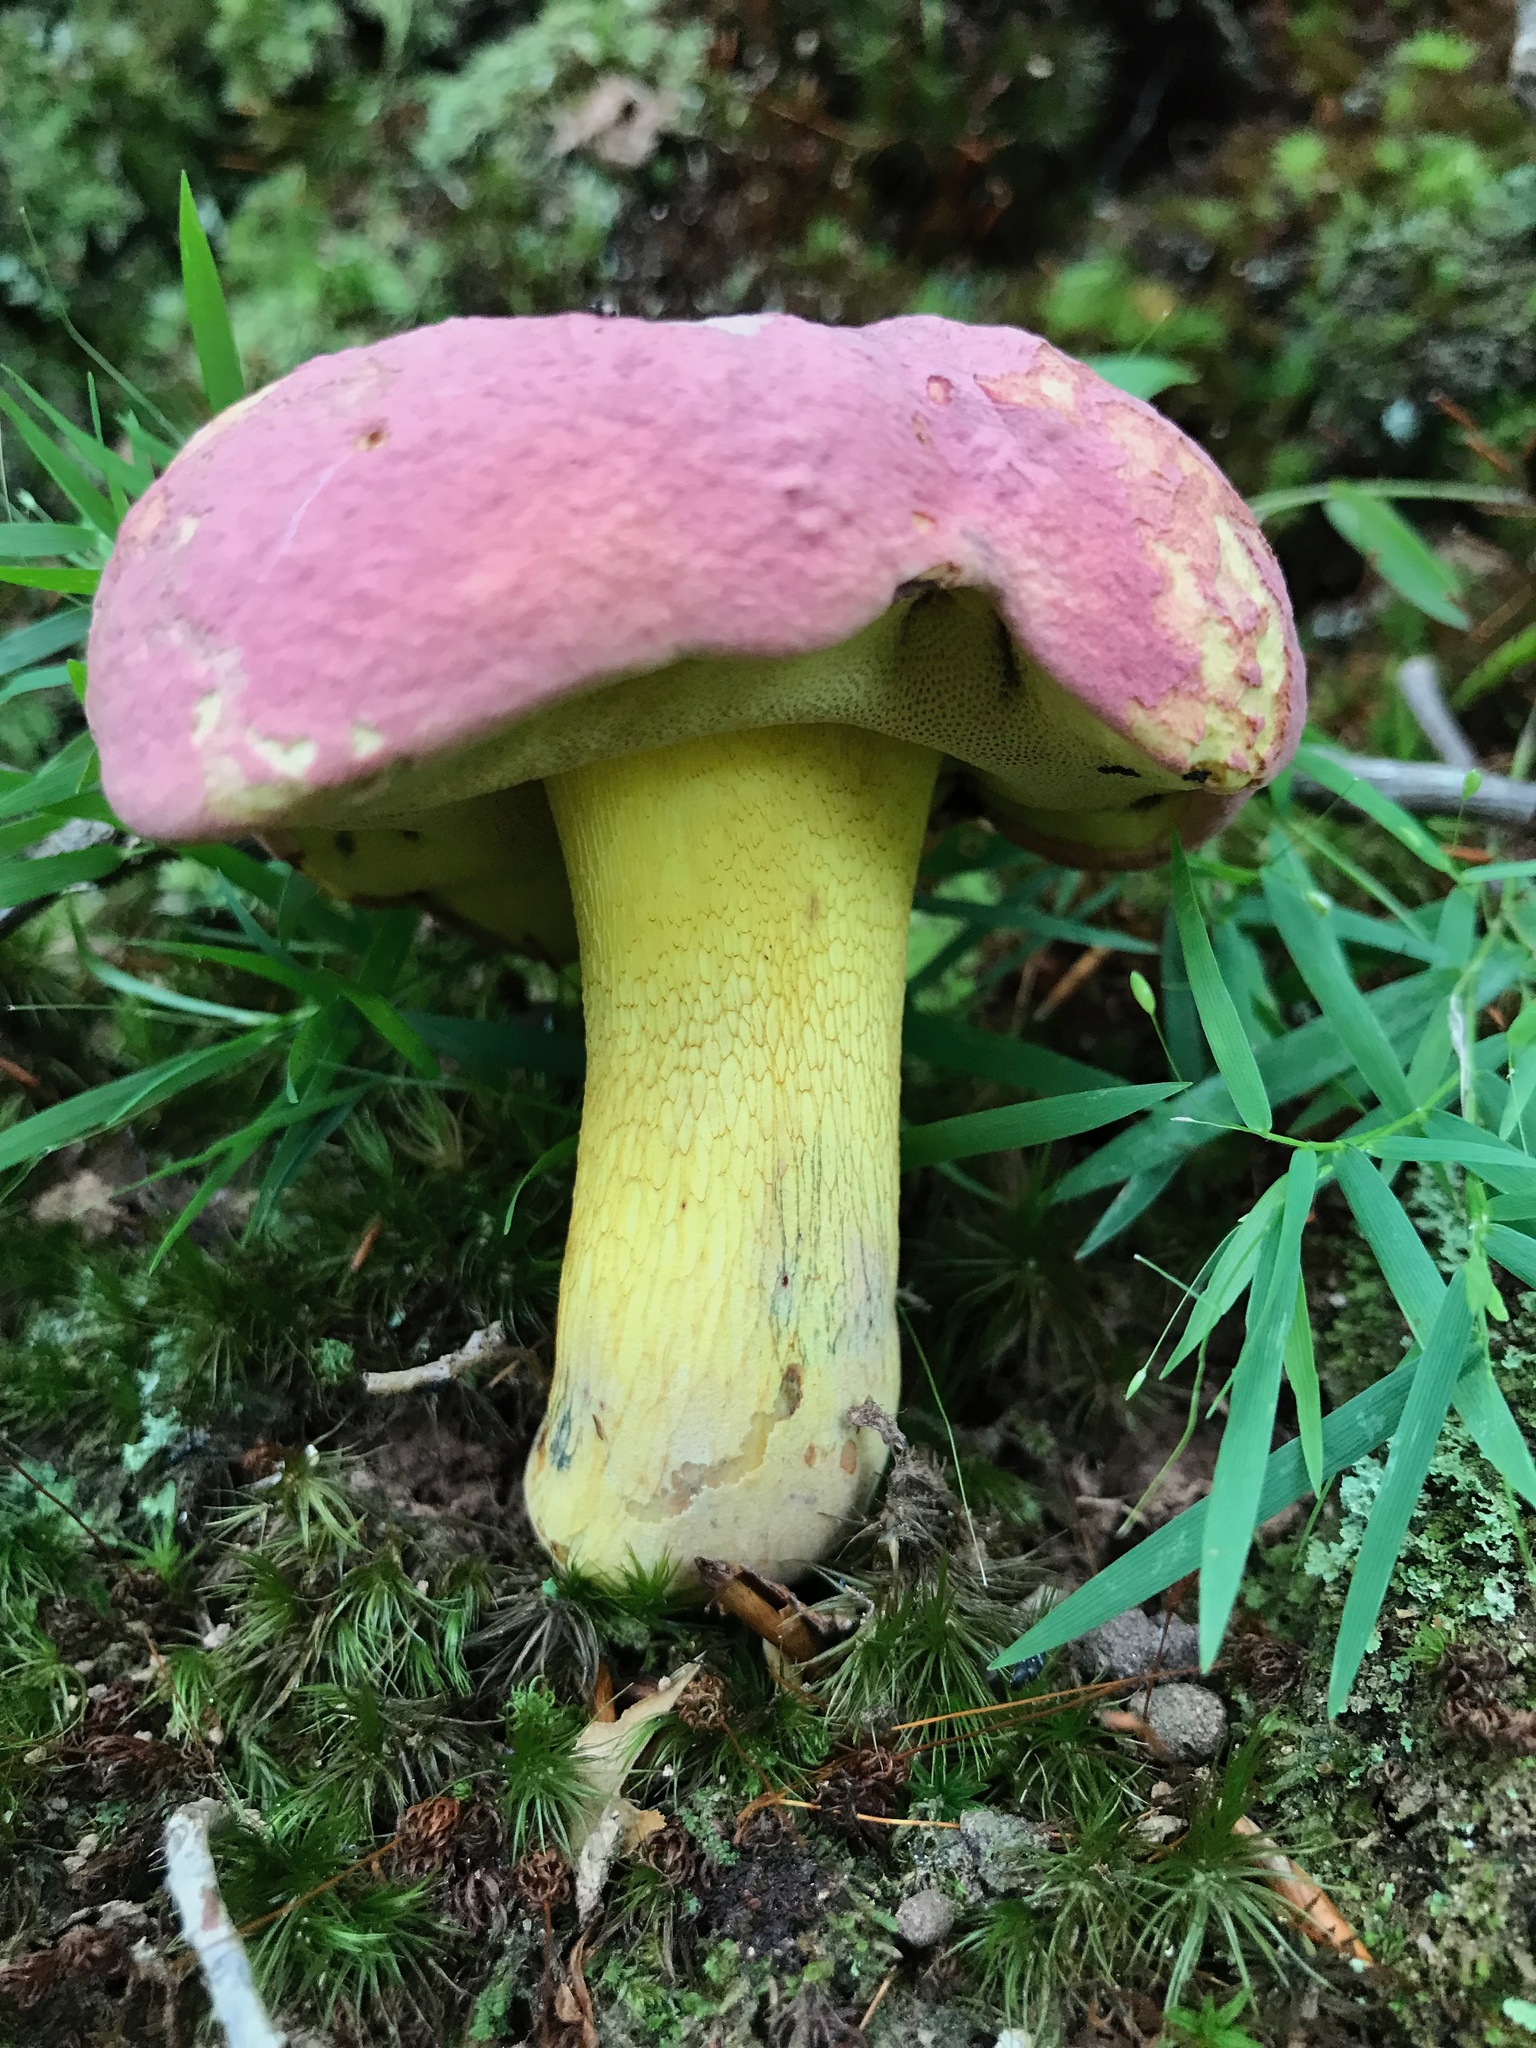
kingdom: Fungi
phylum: Basidiomycota
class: Agaricomycetes
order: Boletales
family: Boletaceae
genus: Butyriboletus
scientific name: Butyriboletus roseopurpureus
